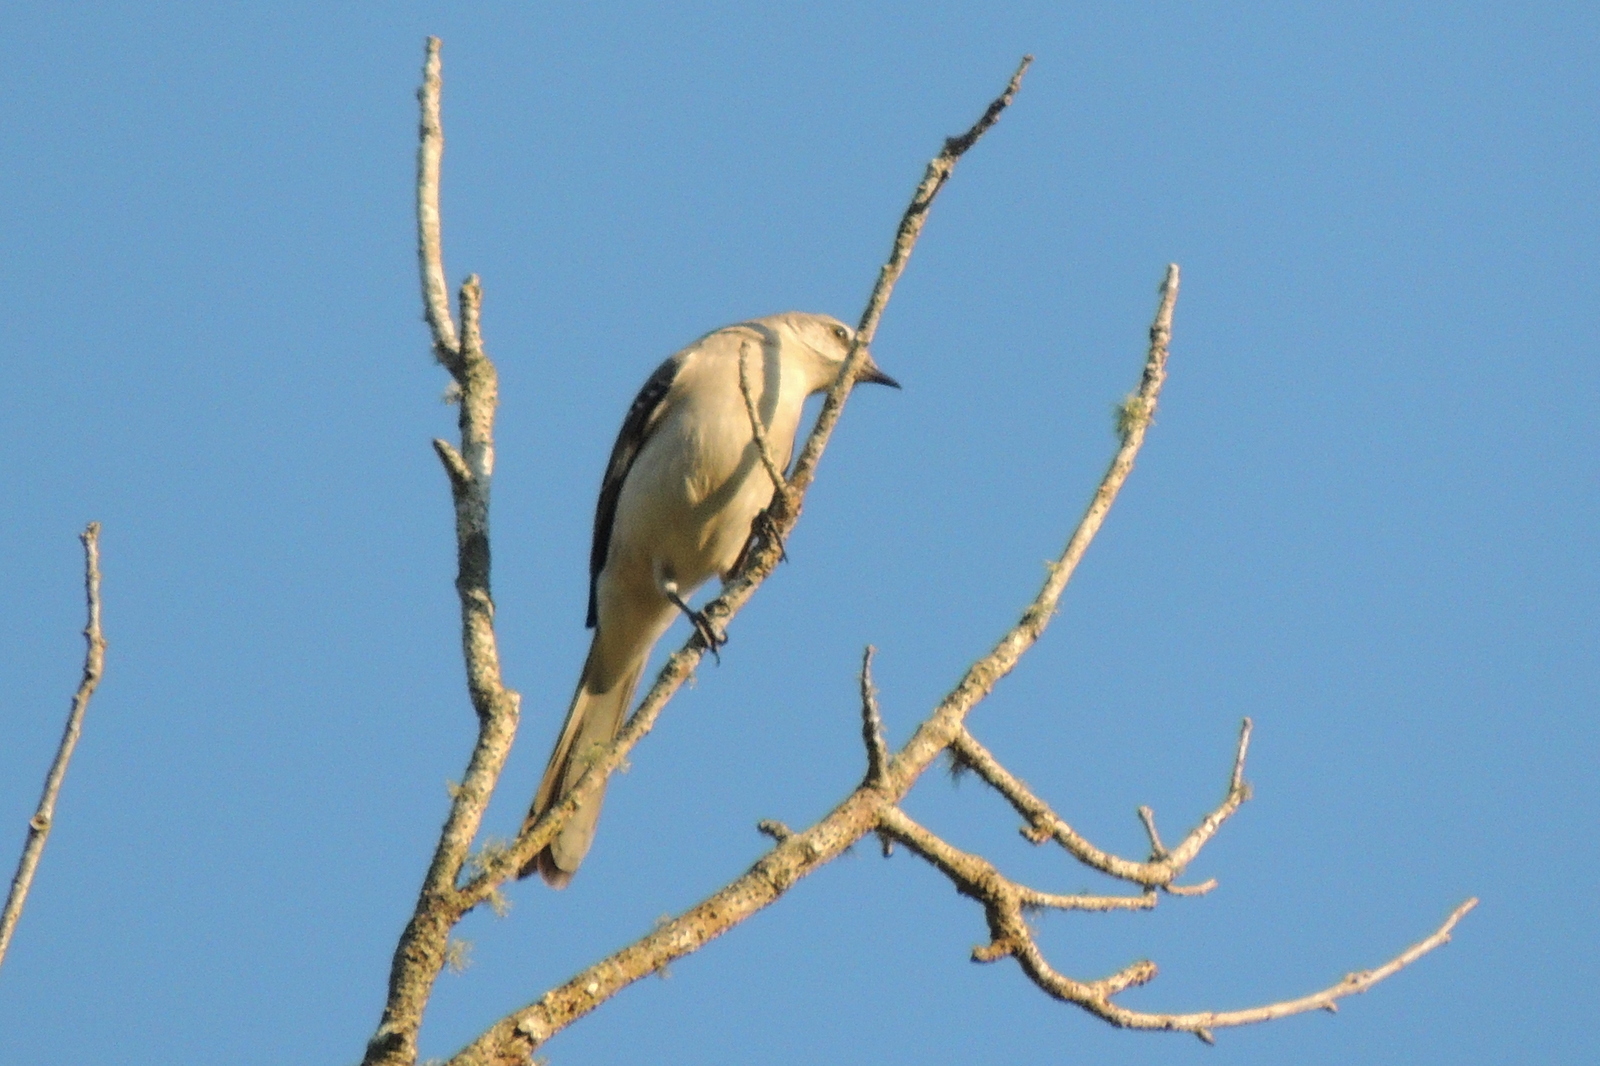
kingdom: Animalia
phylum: Chordata
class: Aves
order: Passeriformes
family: Mimidae
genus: Mimus
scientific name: Mimus polyglottos
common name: Northern mockingbird
